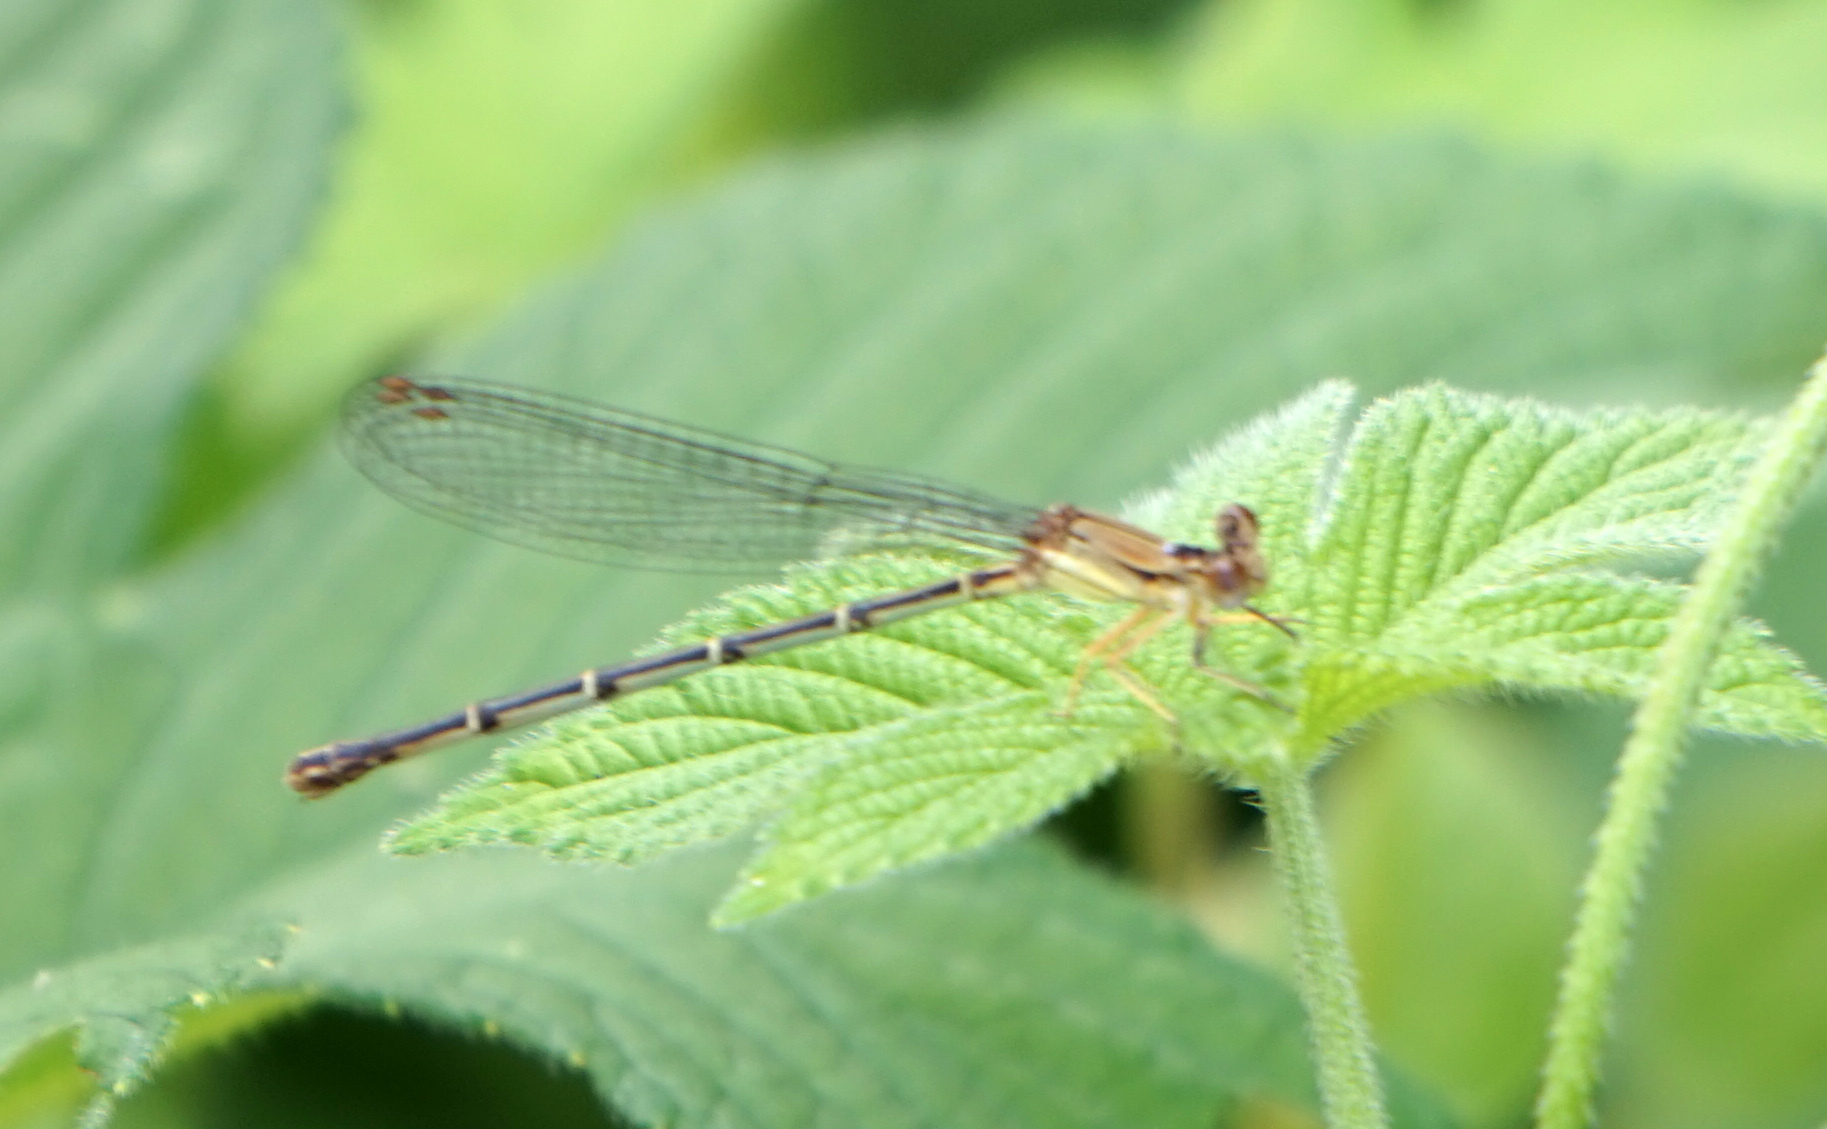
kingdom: Animalia
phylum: Arthropoda
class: Insecta
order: Odonata
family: Coenagrionidae
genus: Argia
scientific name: Argia apicalis
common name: Blue-fronted dancer
